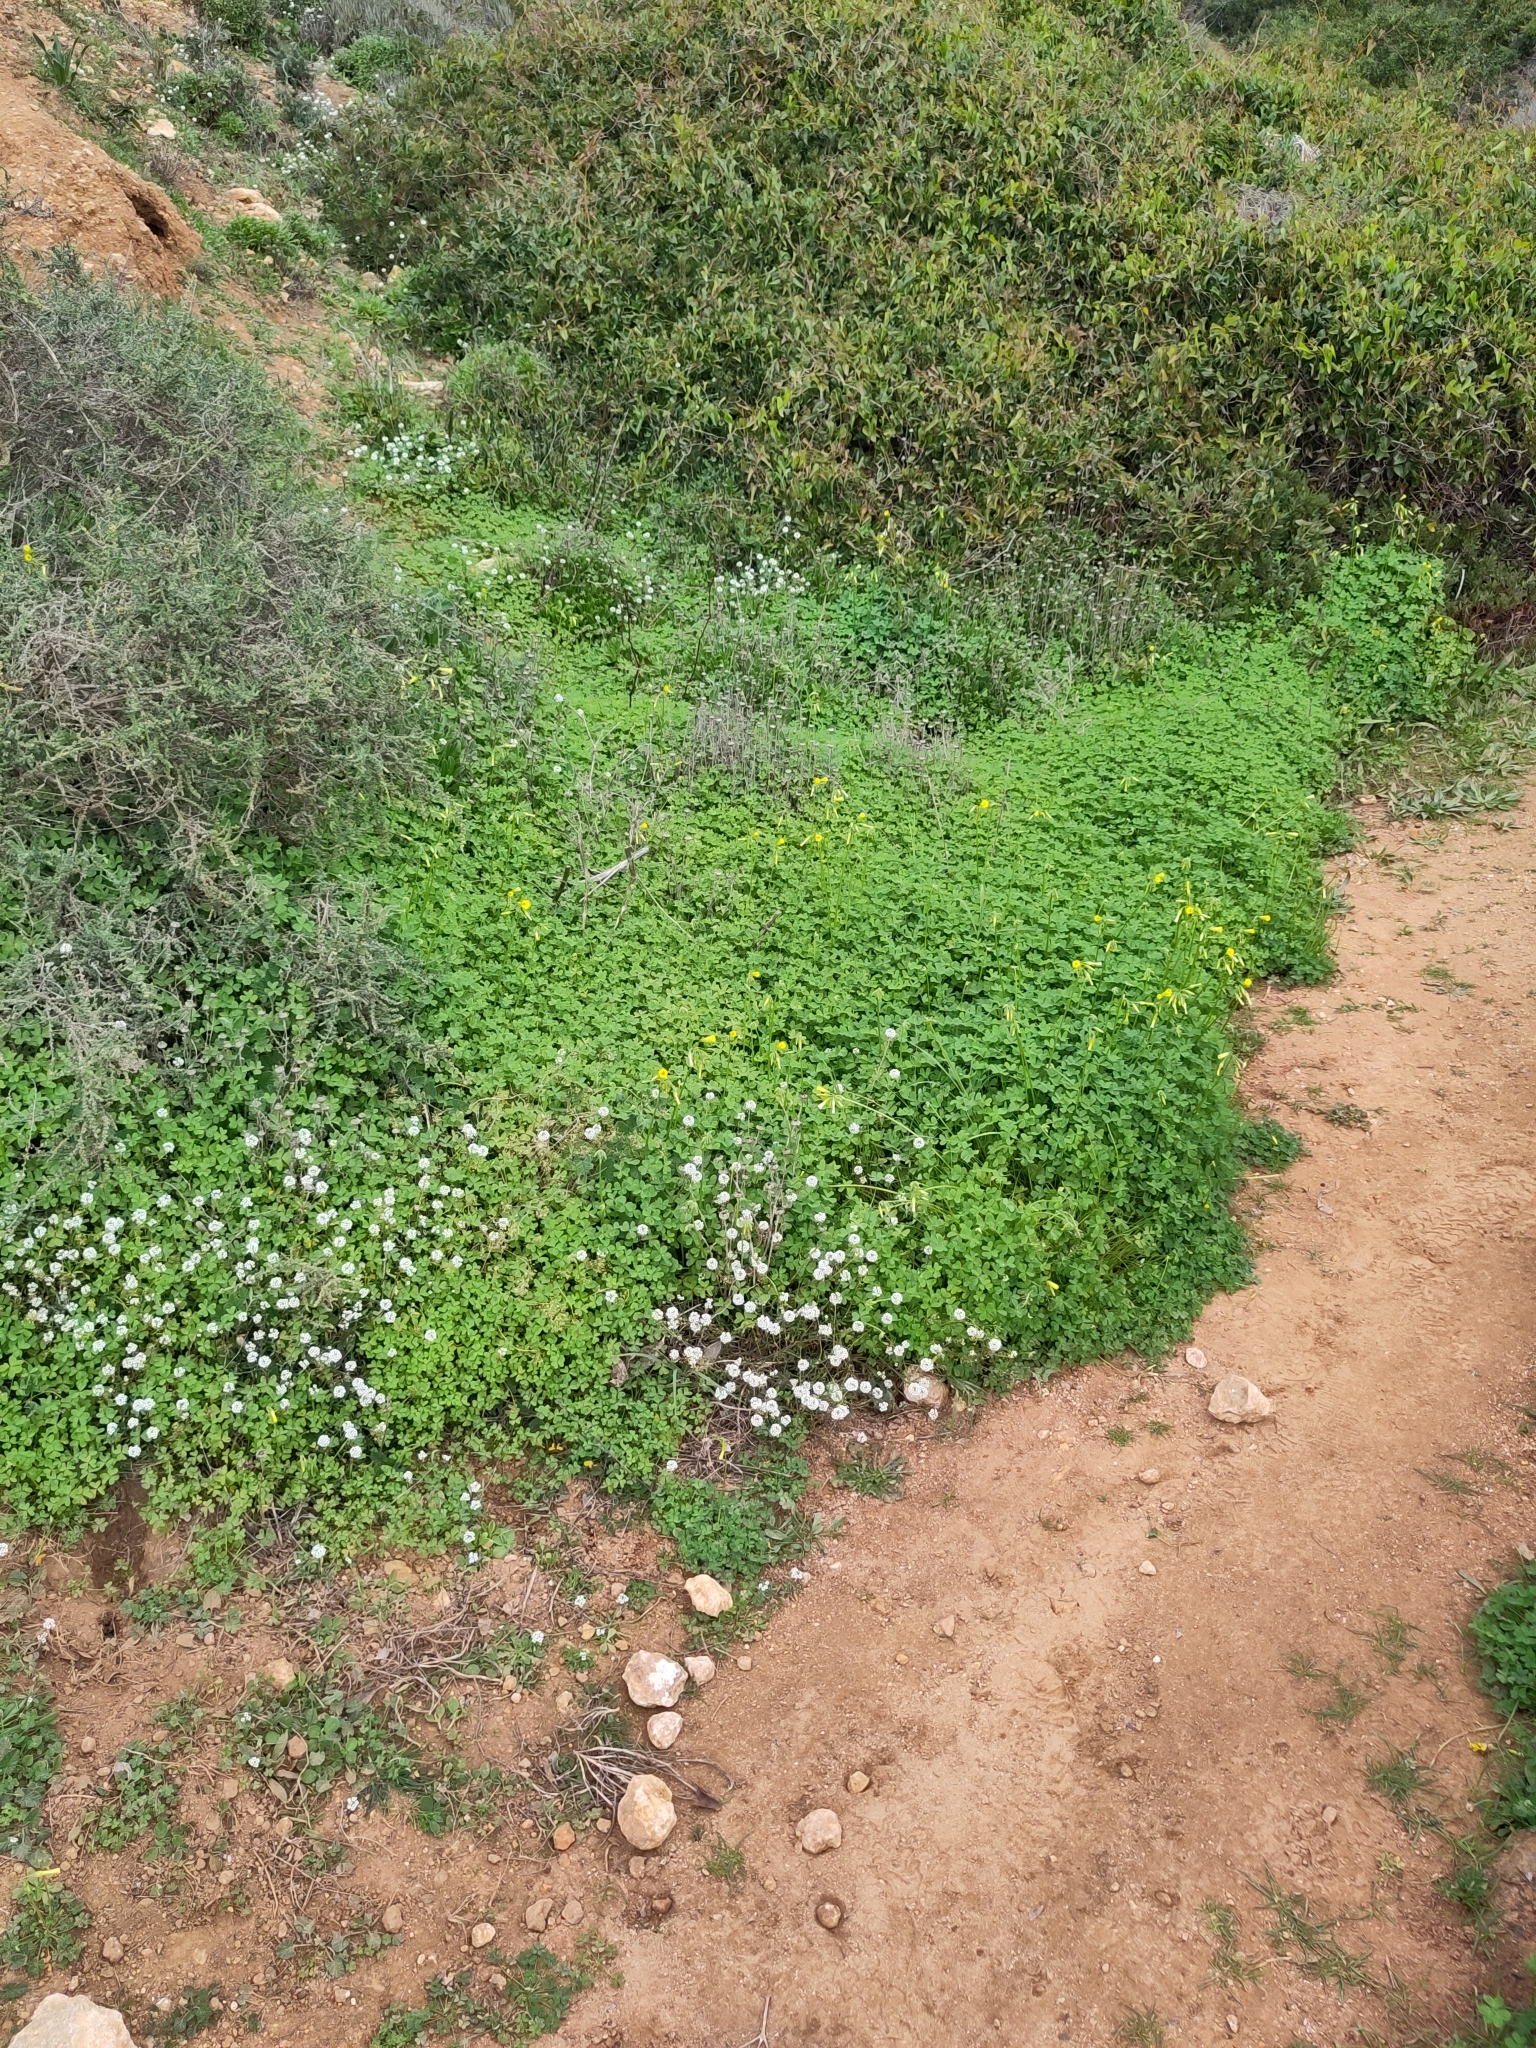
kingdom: Plantae
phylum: Tracheophyta
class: Magnoliopsida
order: Oxalidales
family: Oxalidaceae
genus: Oxalis
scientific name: Oxalis pes-caprae
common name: Bermuda-buttercup
